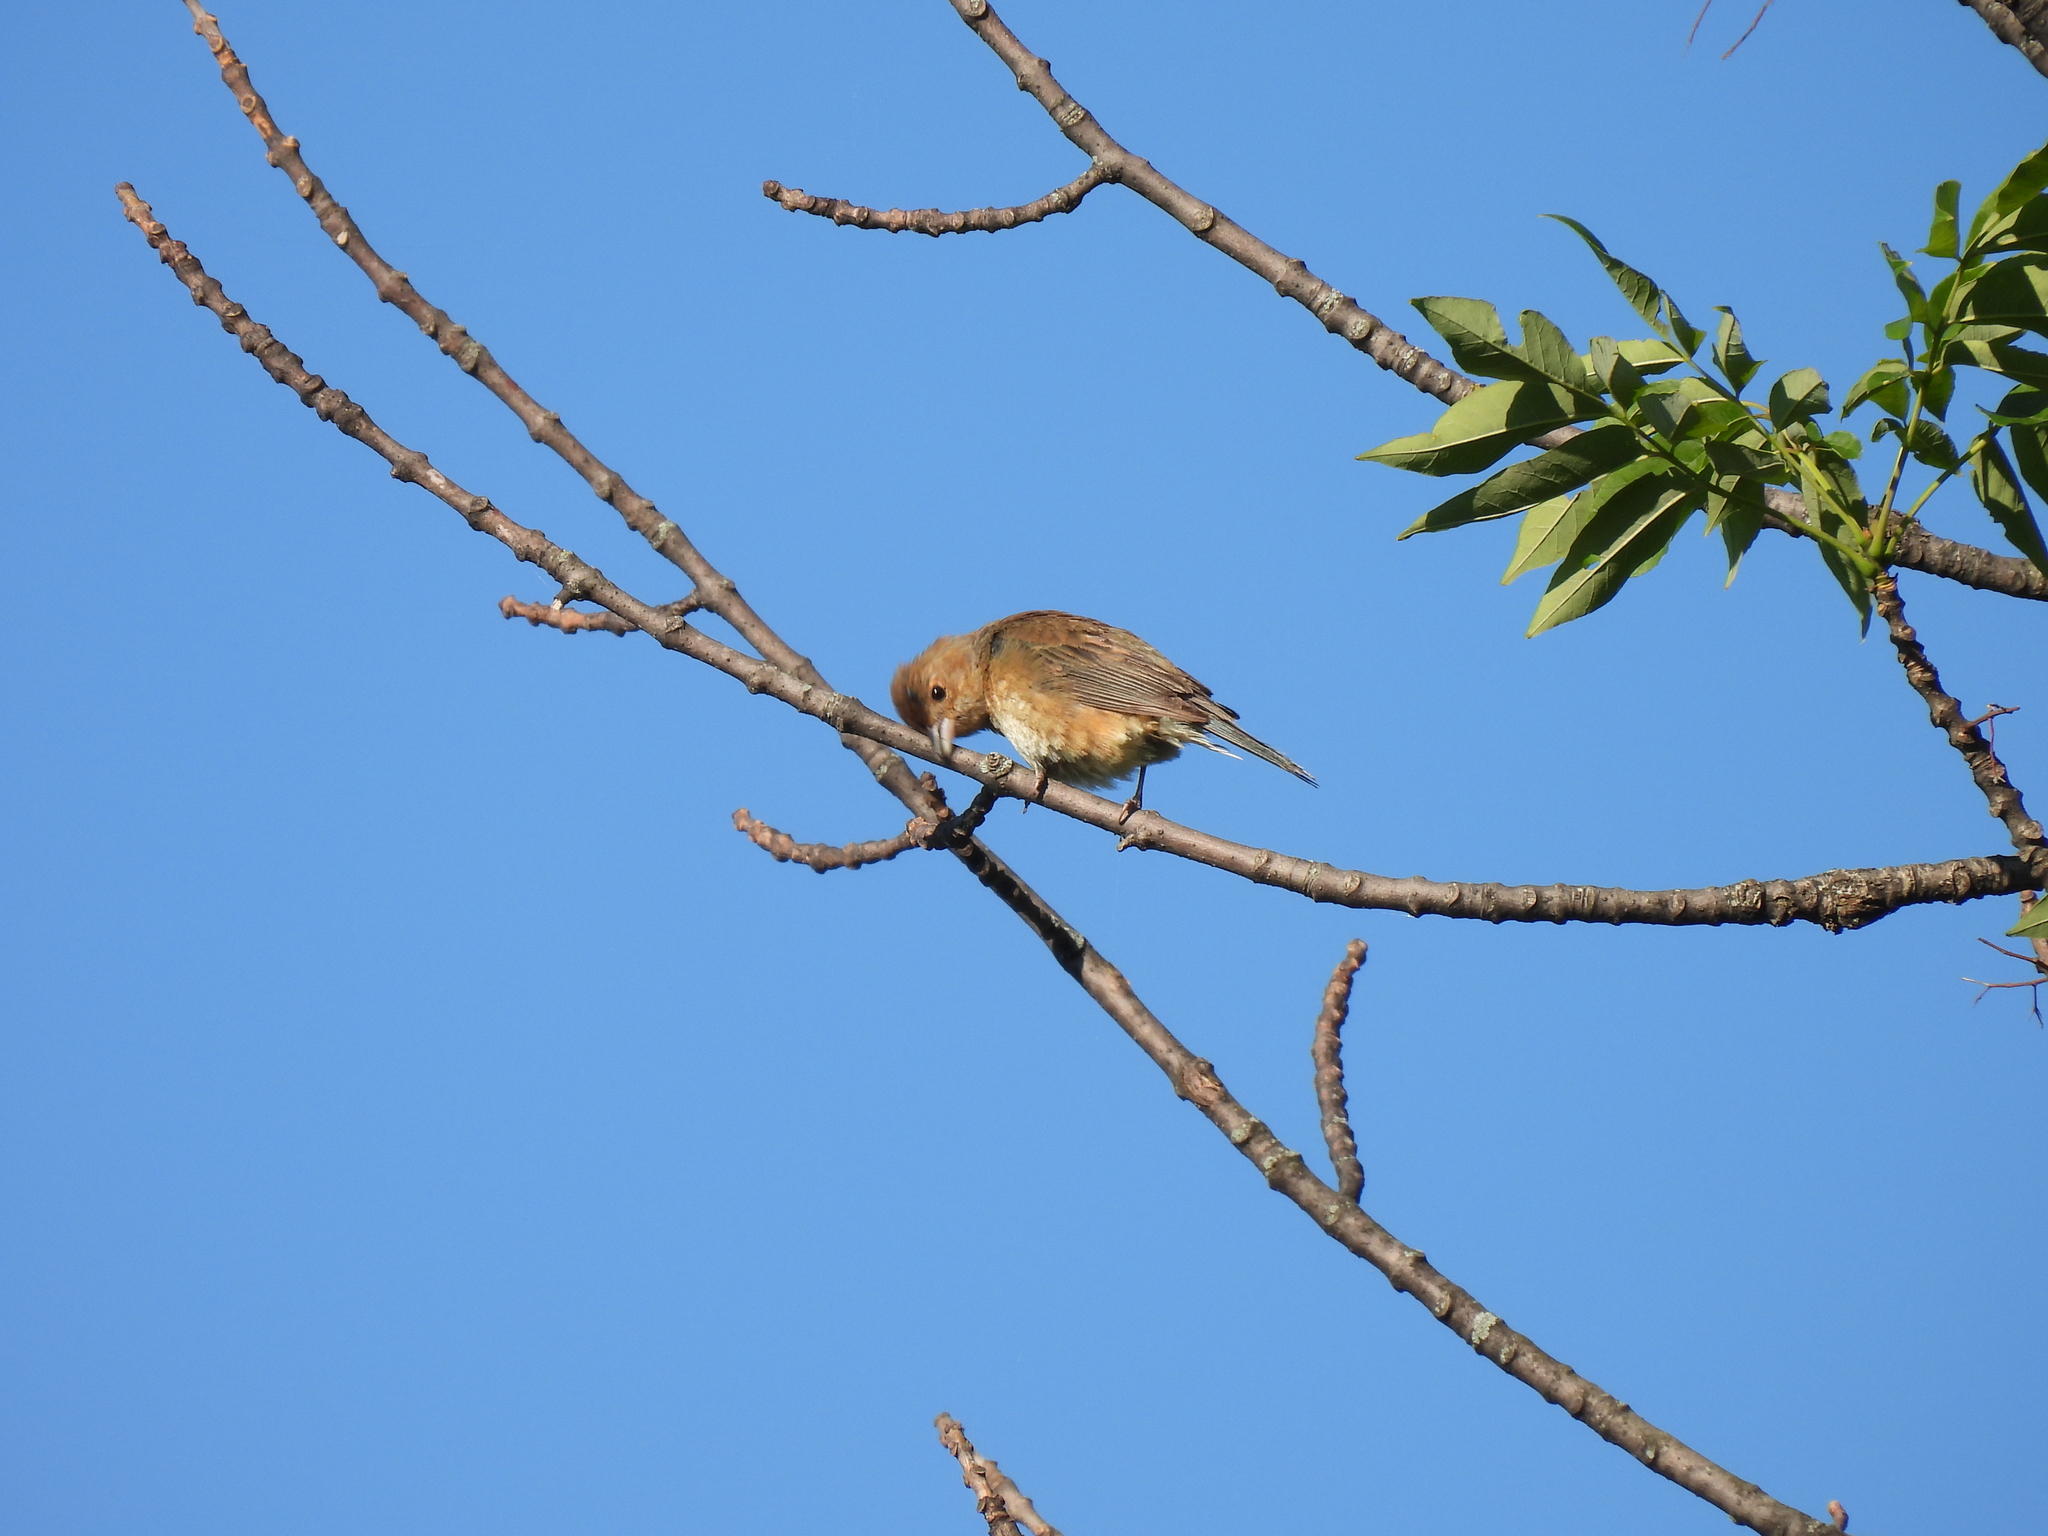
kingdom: Animalia
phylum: Chordata
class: Aves
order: Passeriformes
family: Cardinalidae
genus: Passerina
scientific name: Passerina cyanea
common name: Indigo bunting
